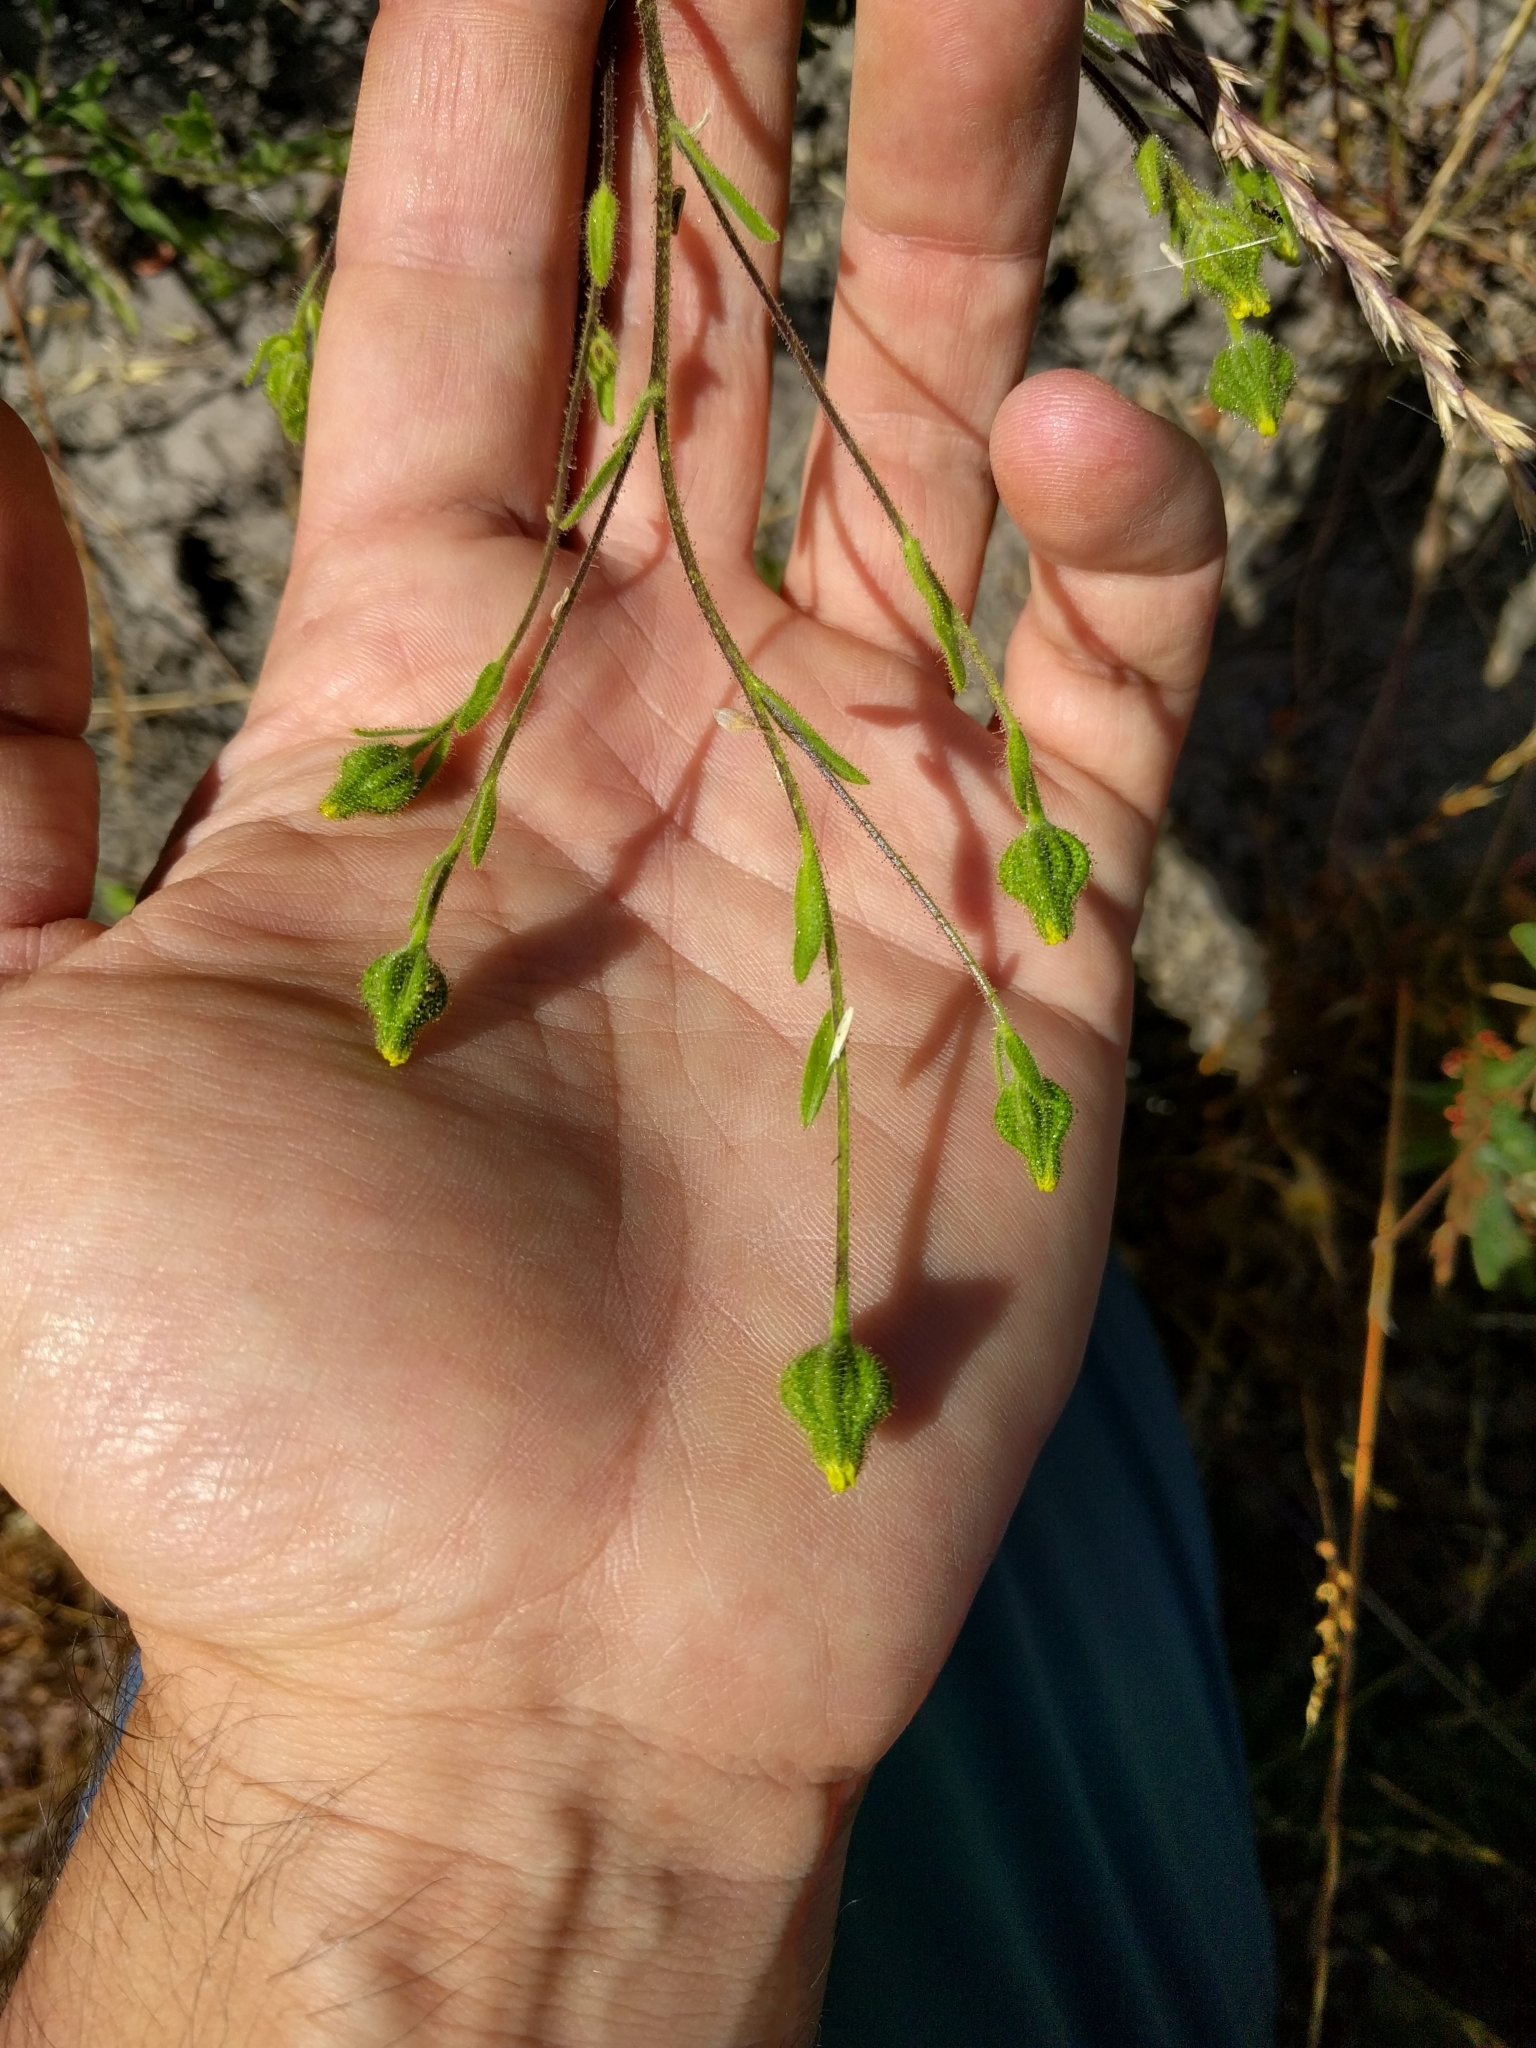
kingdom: Plantae
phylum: Tracheophyta
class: Magnoliopsida
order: Asterales
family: Asteraceae
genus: Madia
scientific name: Madia gracilis
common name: Grassy tarweed
